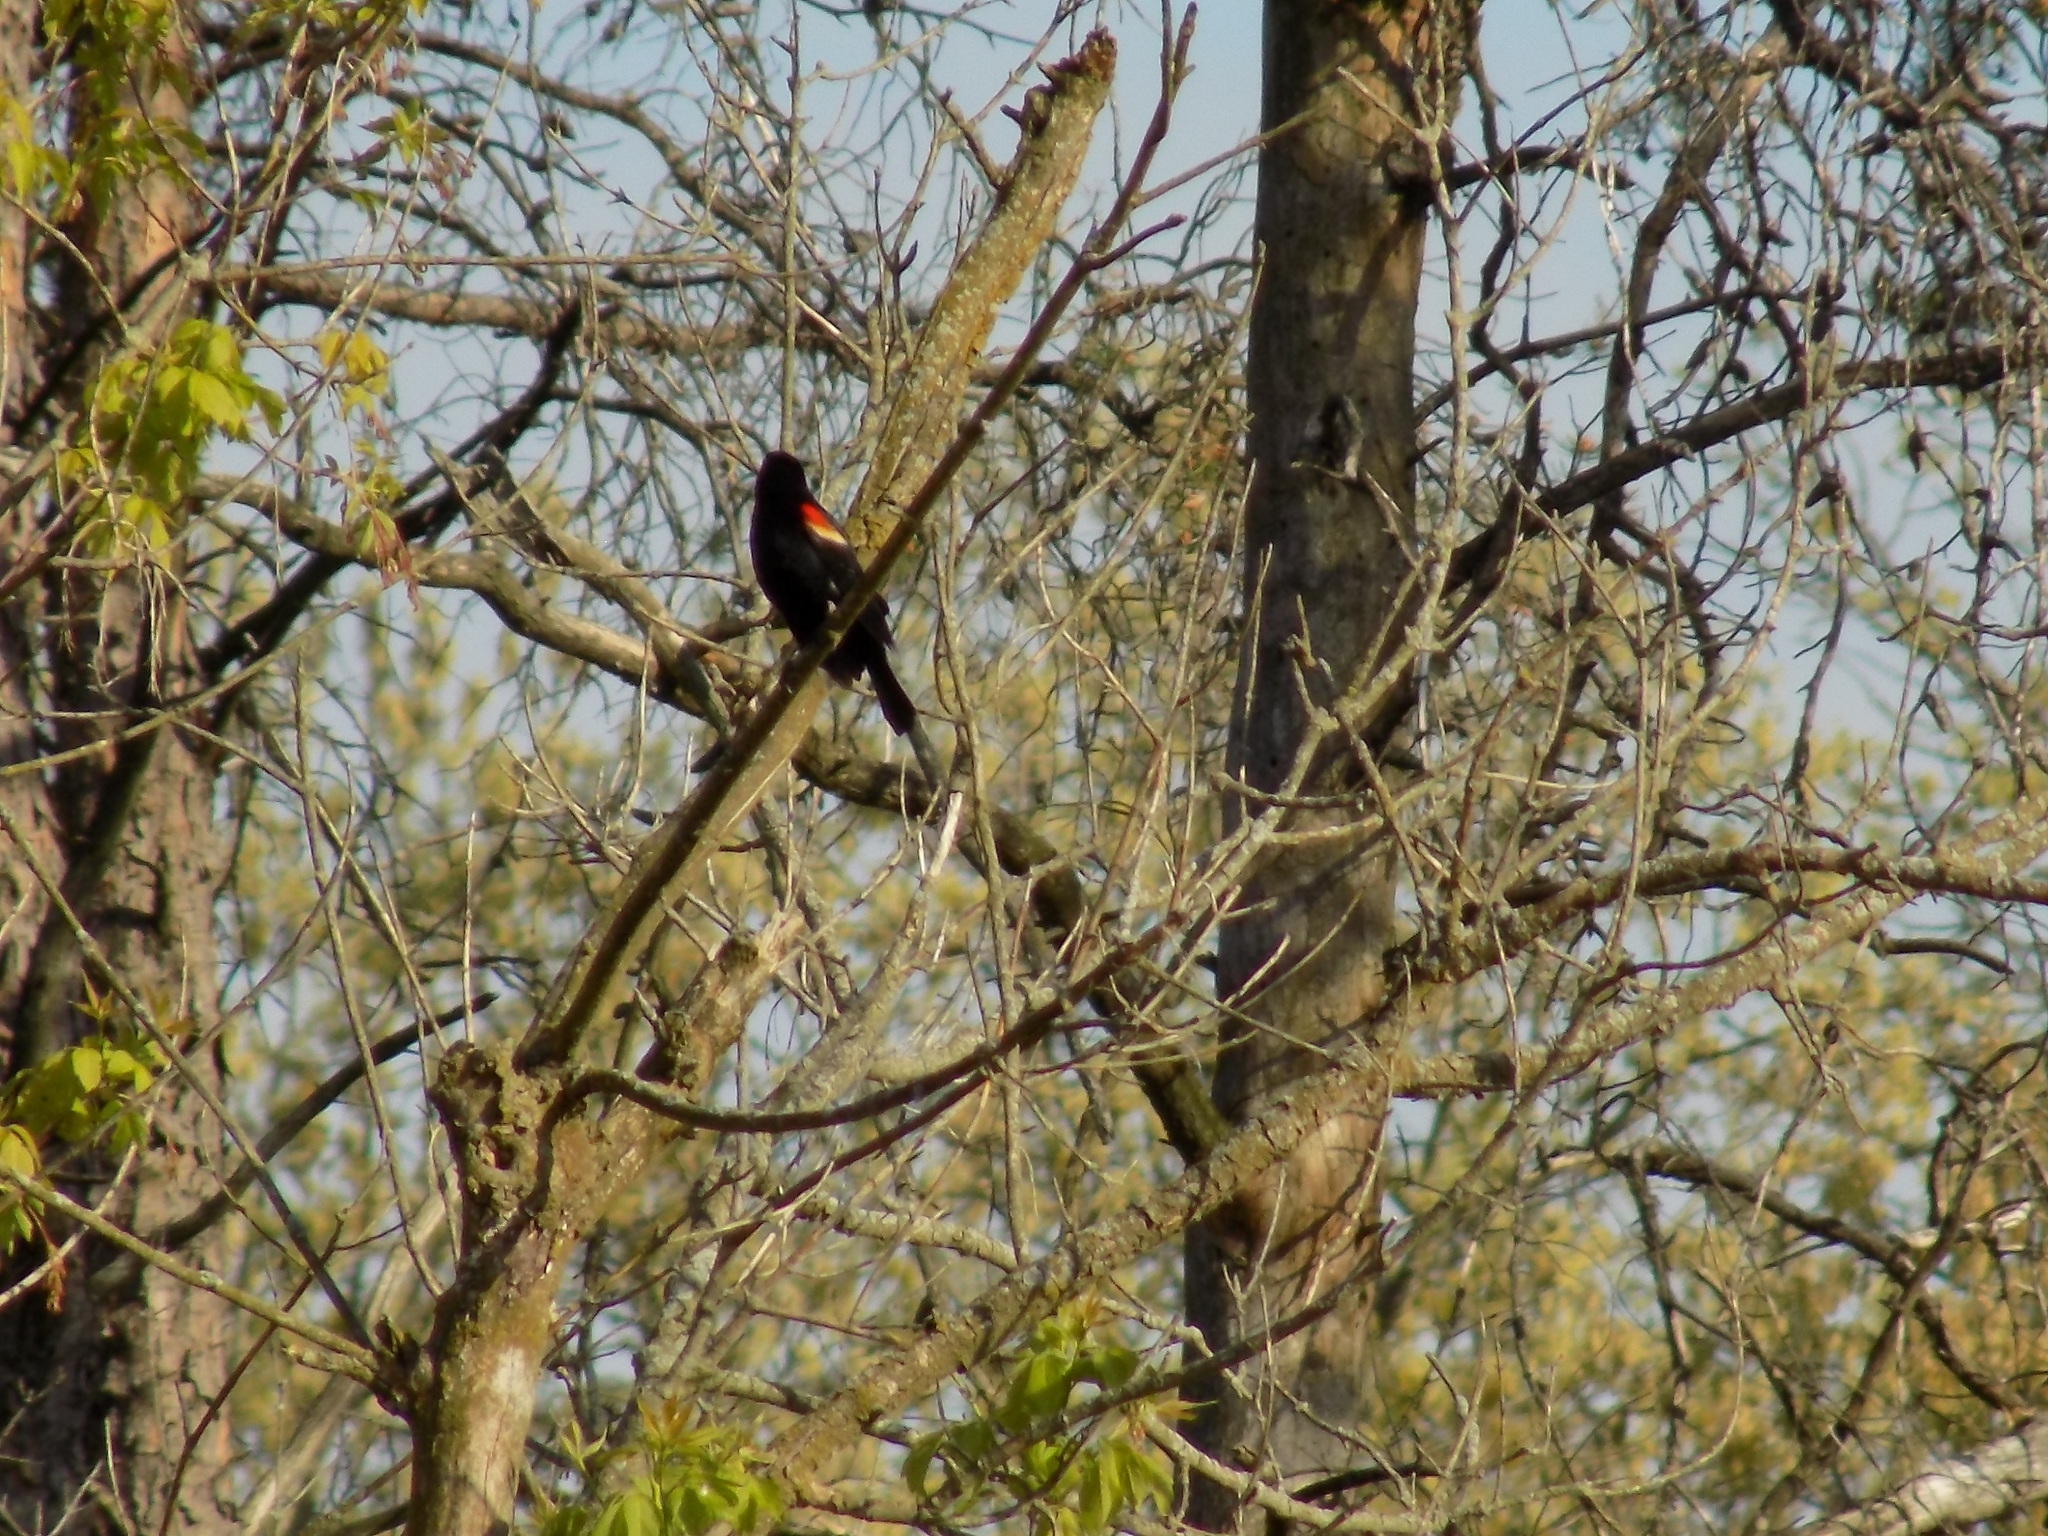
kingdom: Animalia
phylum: Chordata
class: Aves
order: Passeriformes
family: Icteridae
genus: Agelaius
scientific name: Agelaius phoeniceus
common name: Red-winged blackbird
